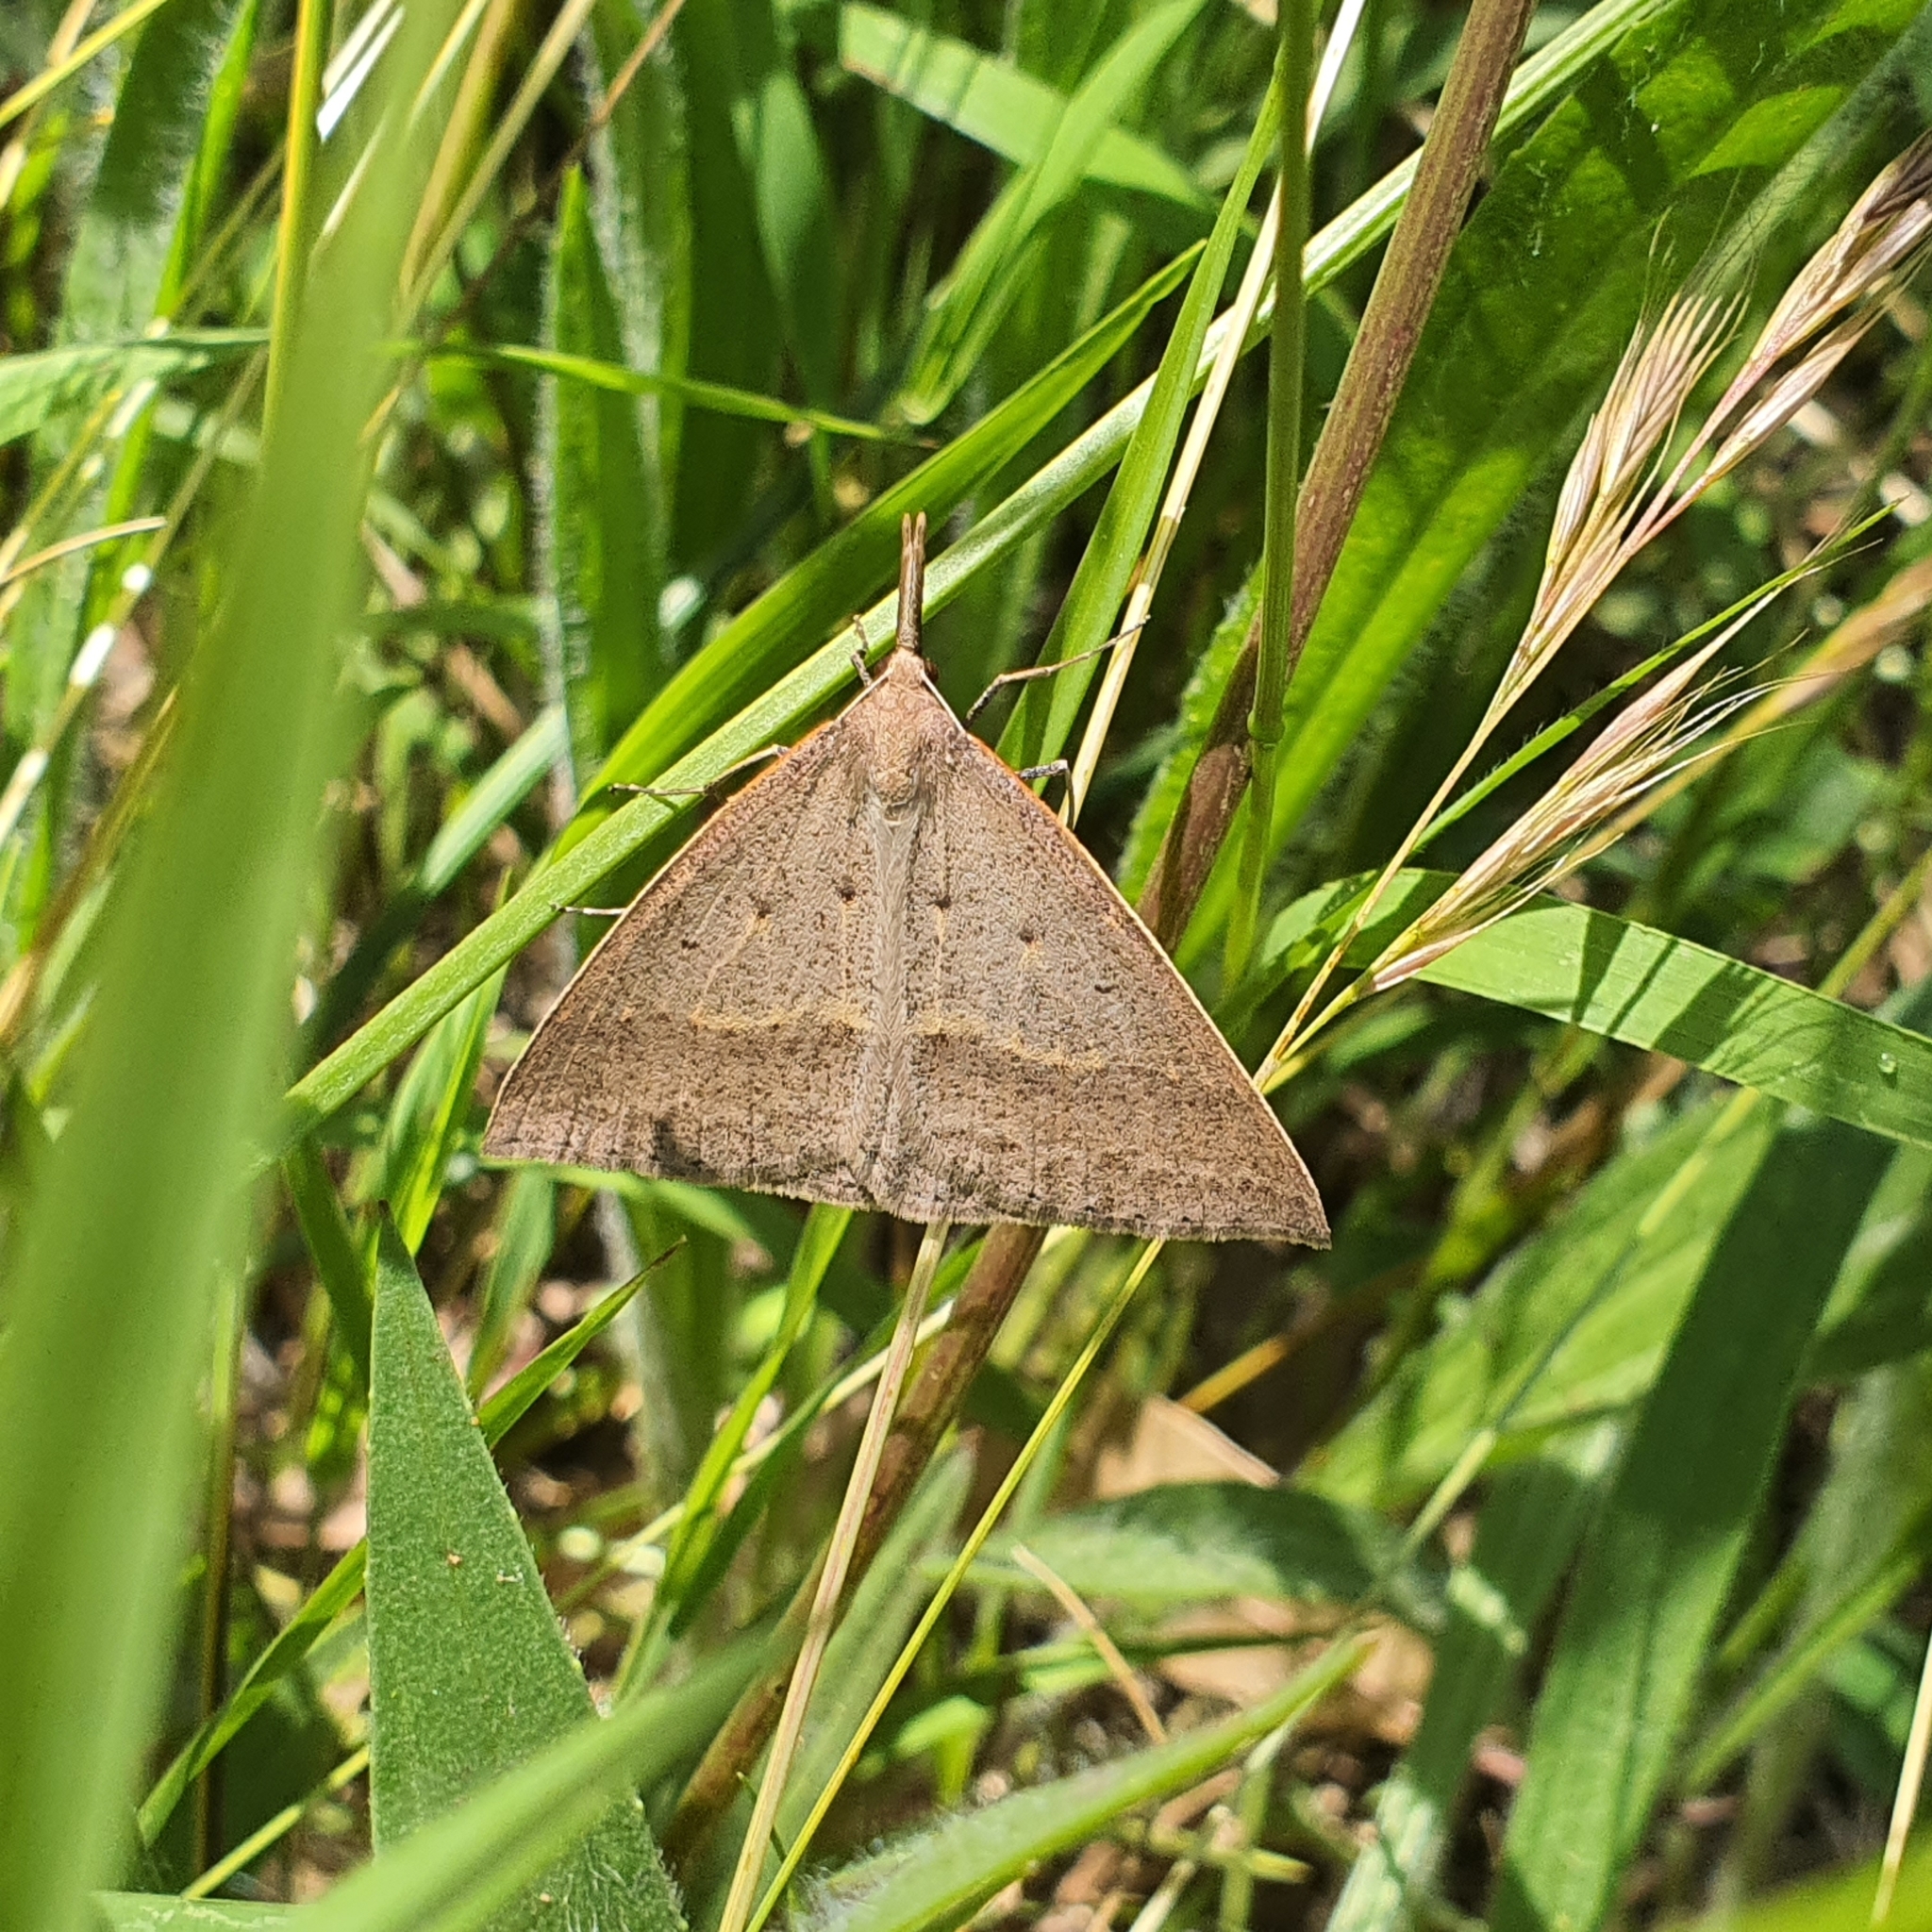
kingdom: Animalia
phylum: Arthropoda
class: Insecta
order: Lepidoptera
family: Geometridae
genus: Epidesmia
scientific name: Epidesmia hypenaria
